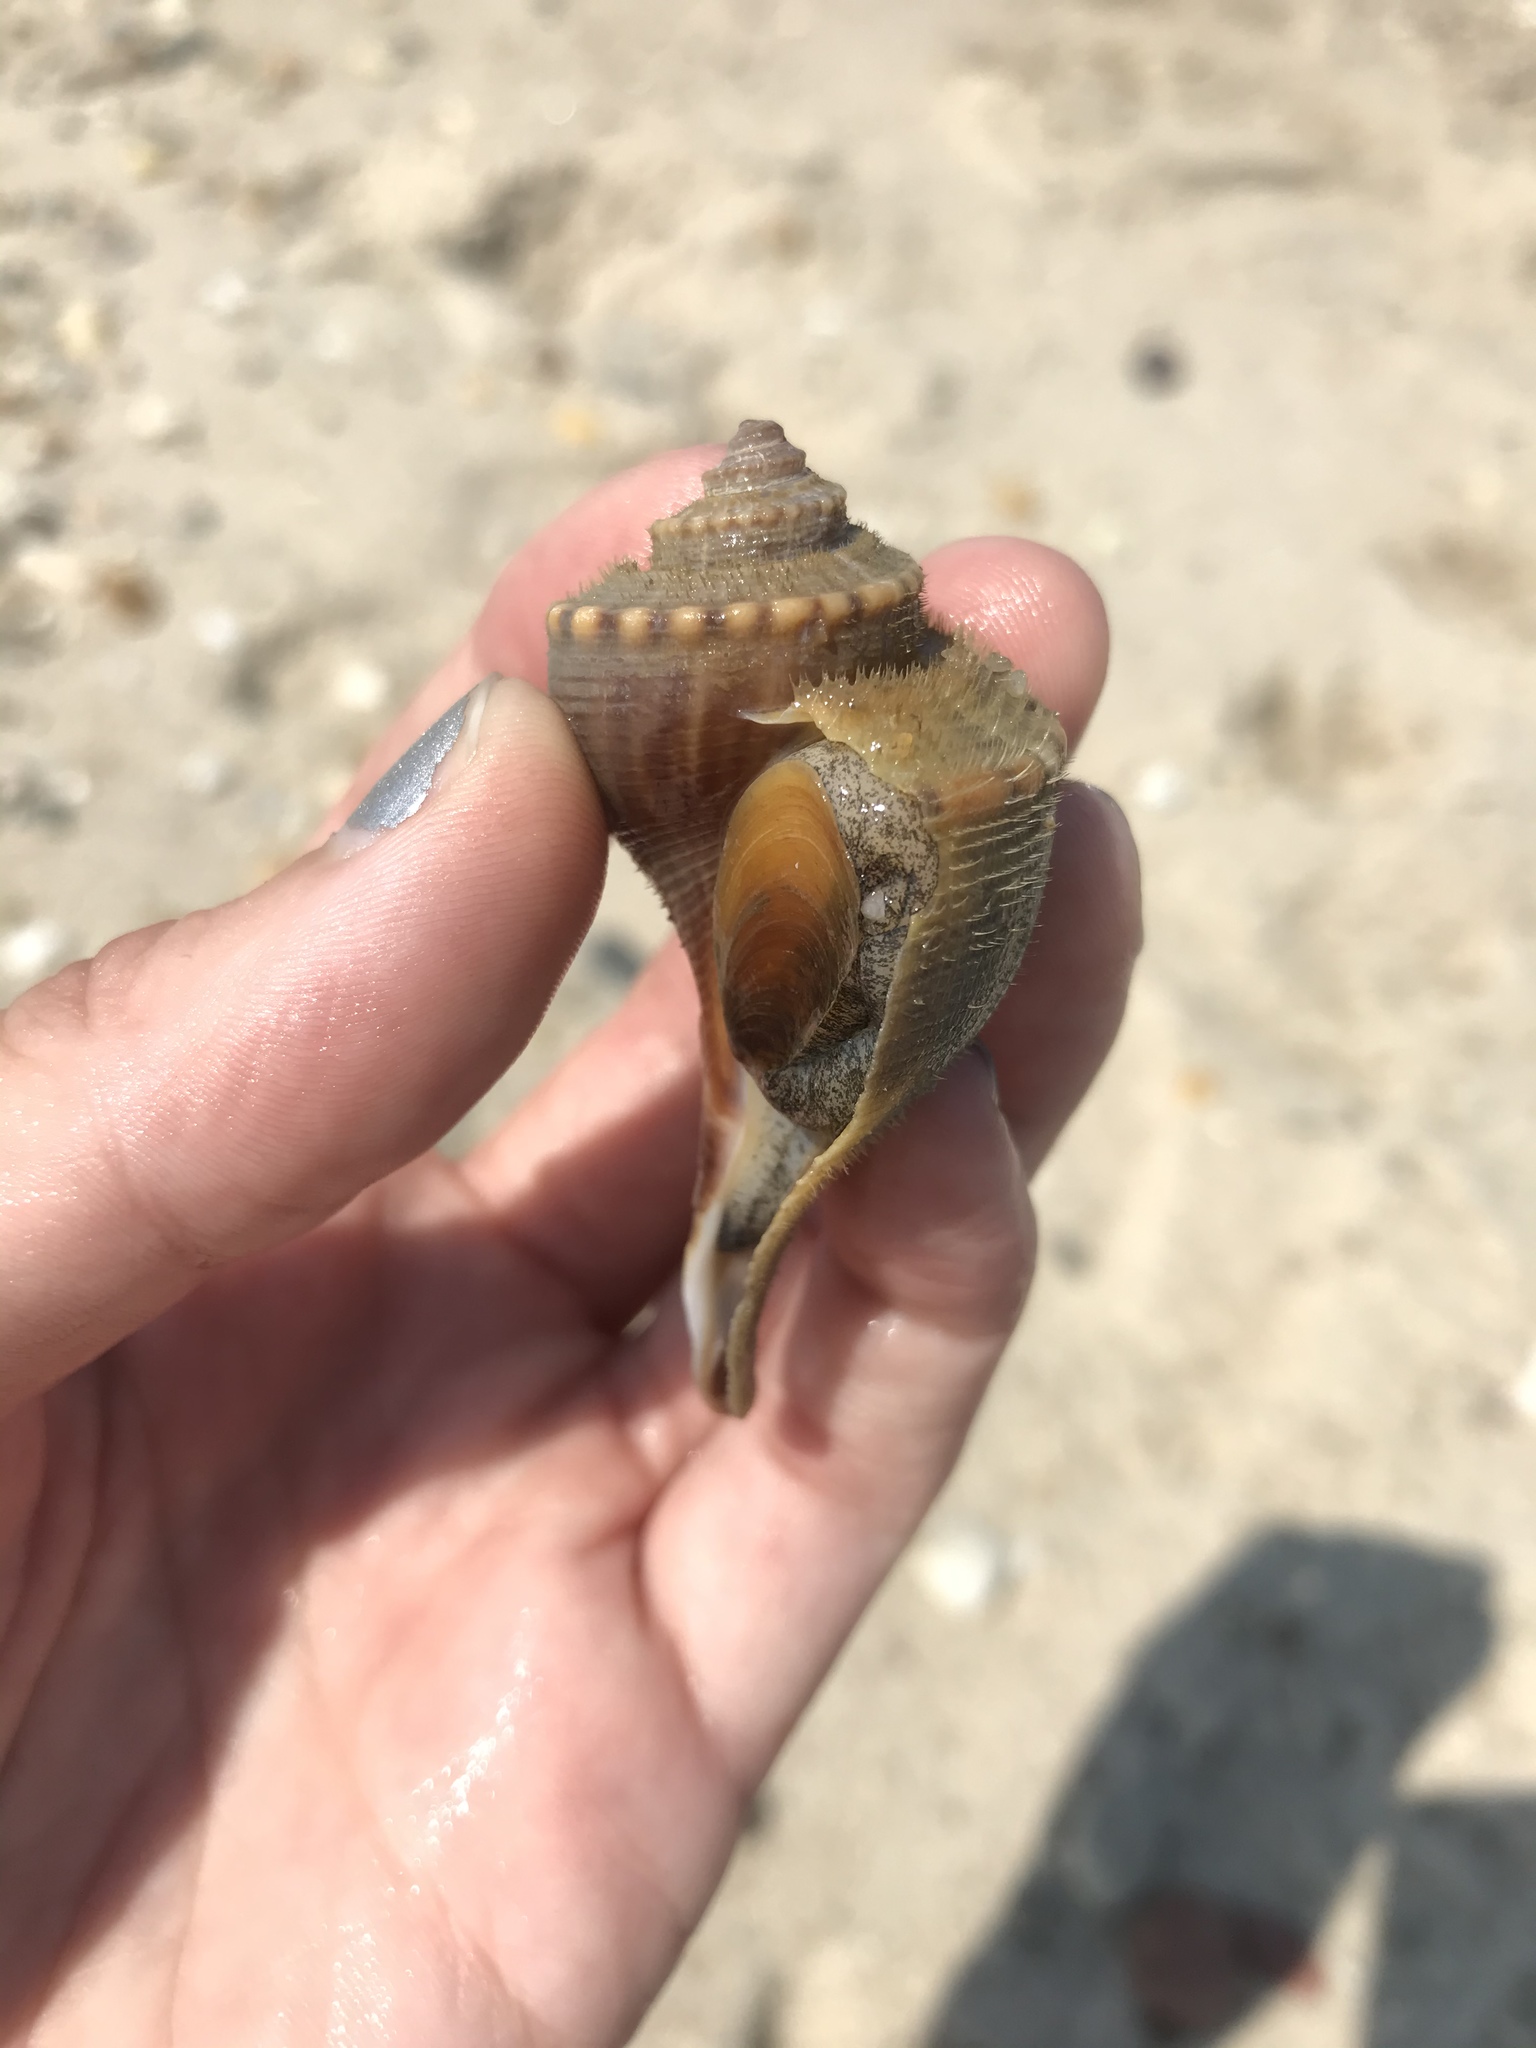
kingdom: Animalia
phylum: Mollusca
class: Gastropoda
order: Neogastropoda
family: Busyconidae
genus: Busycotypus
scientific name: Busycotypus canaliculatus
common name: Channeled whelk
